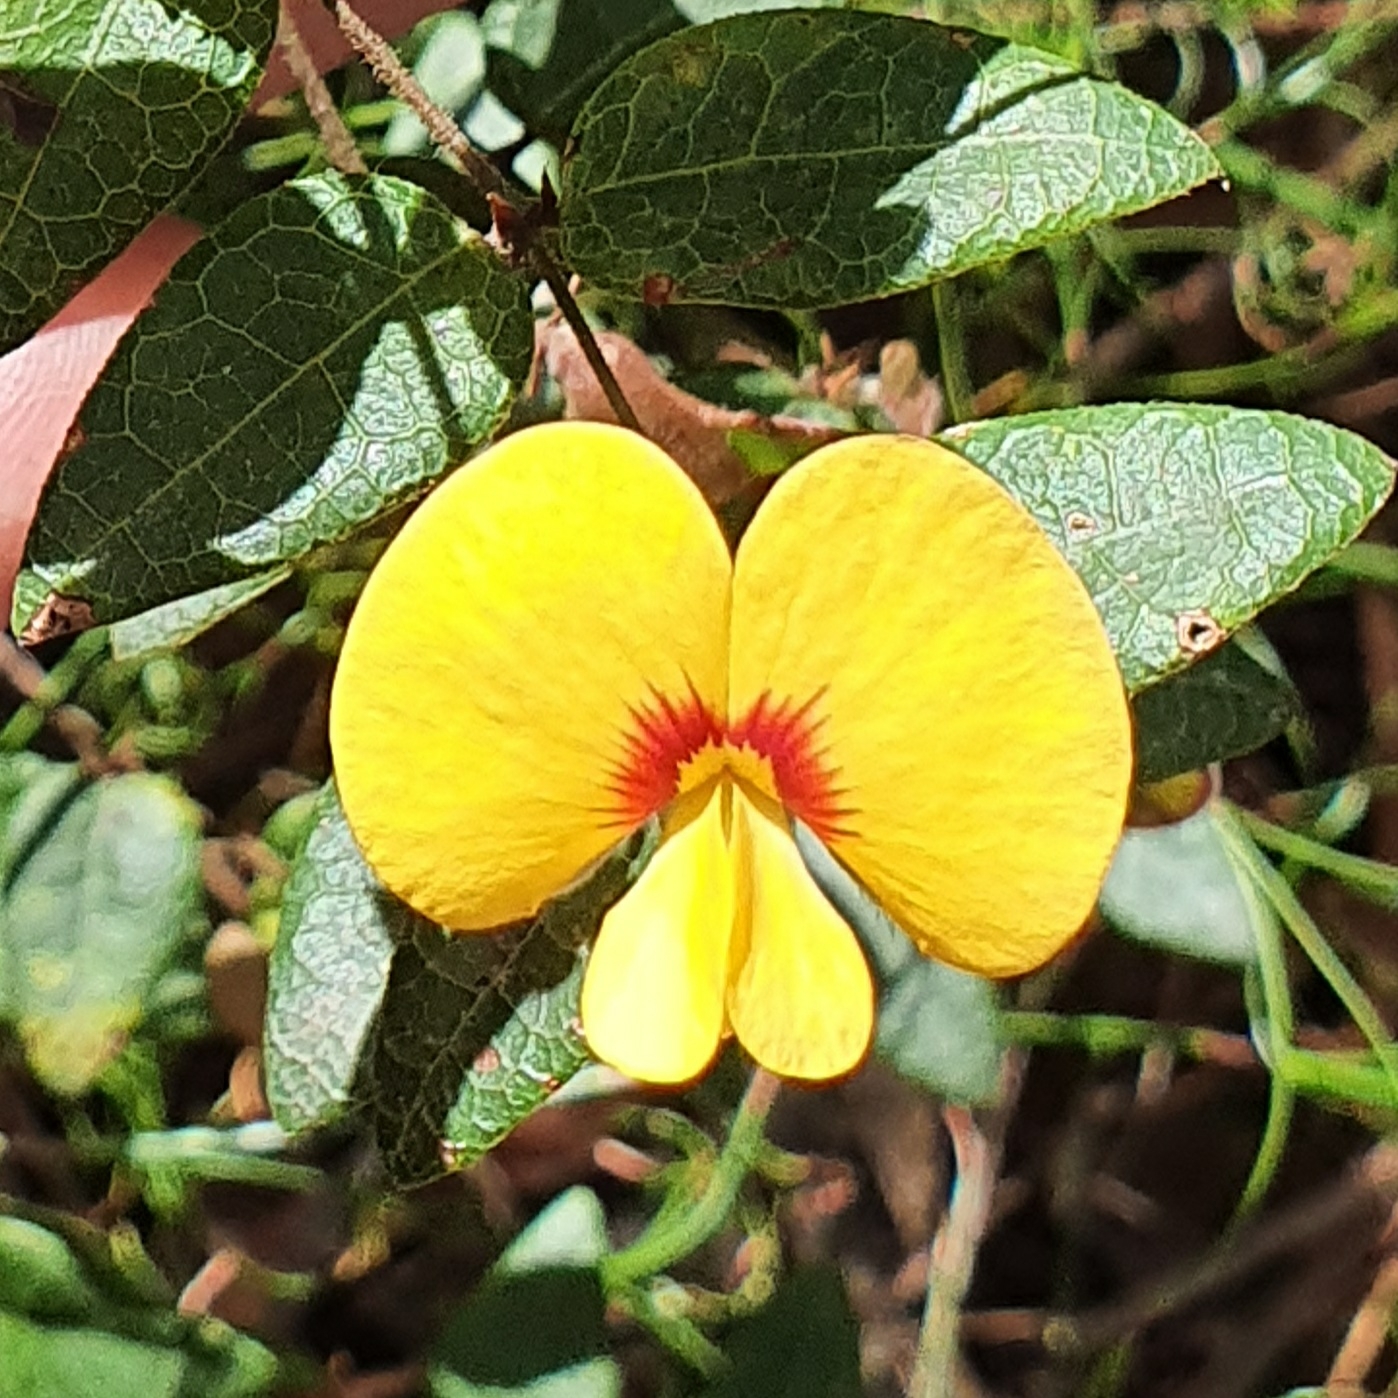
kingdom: Plantae
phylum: Tracheophyta
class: Magnoliopsida
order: Fabales
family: Fabaceae
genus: Platylobium
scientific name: Platylobium formosum
